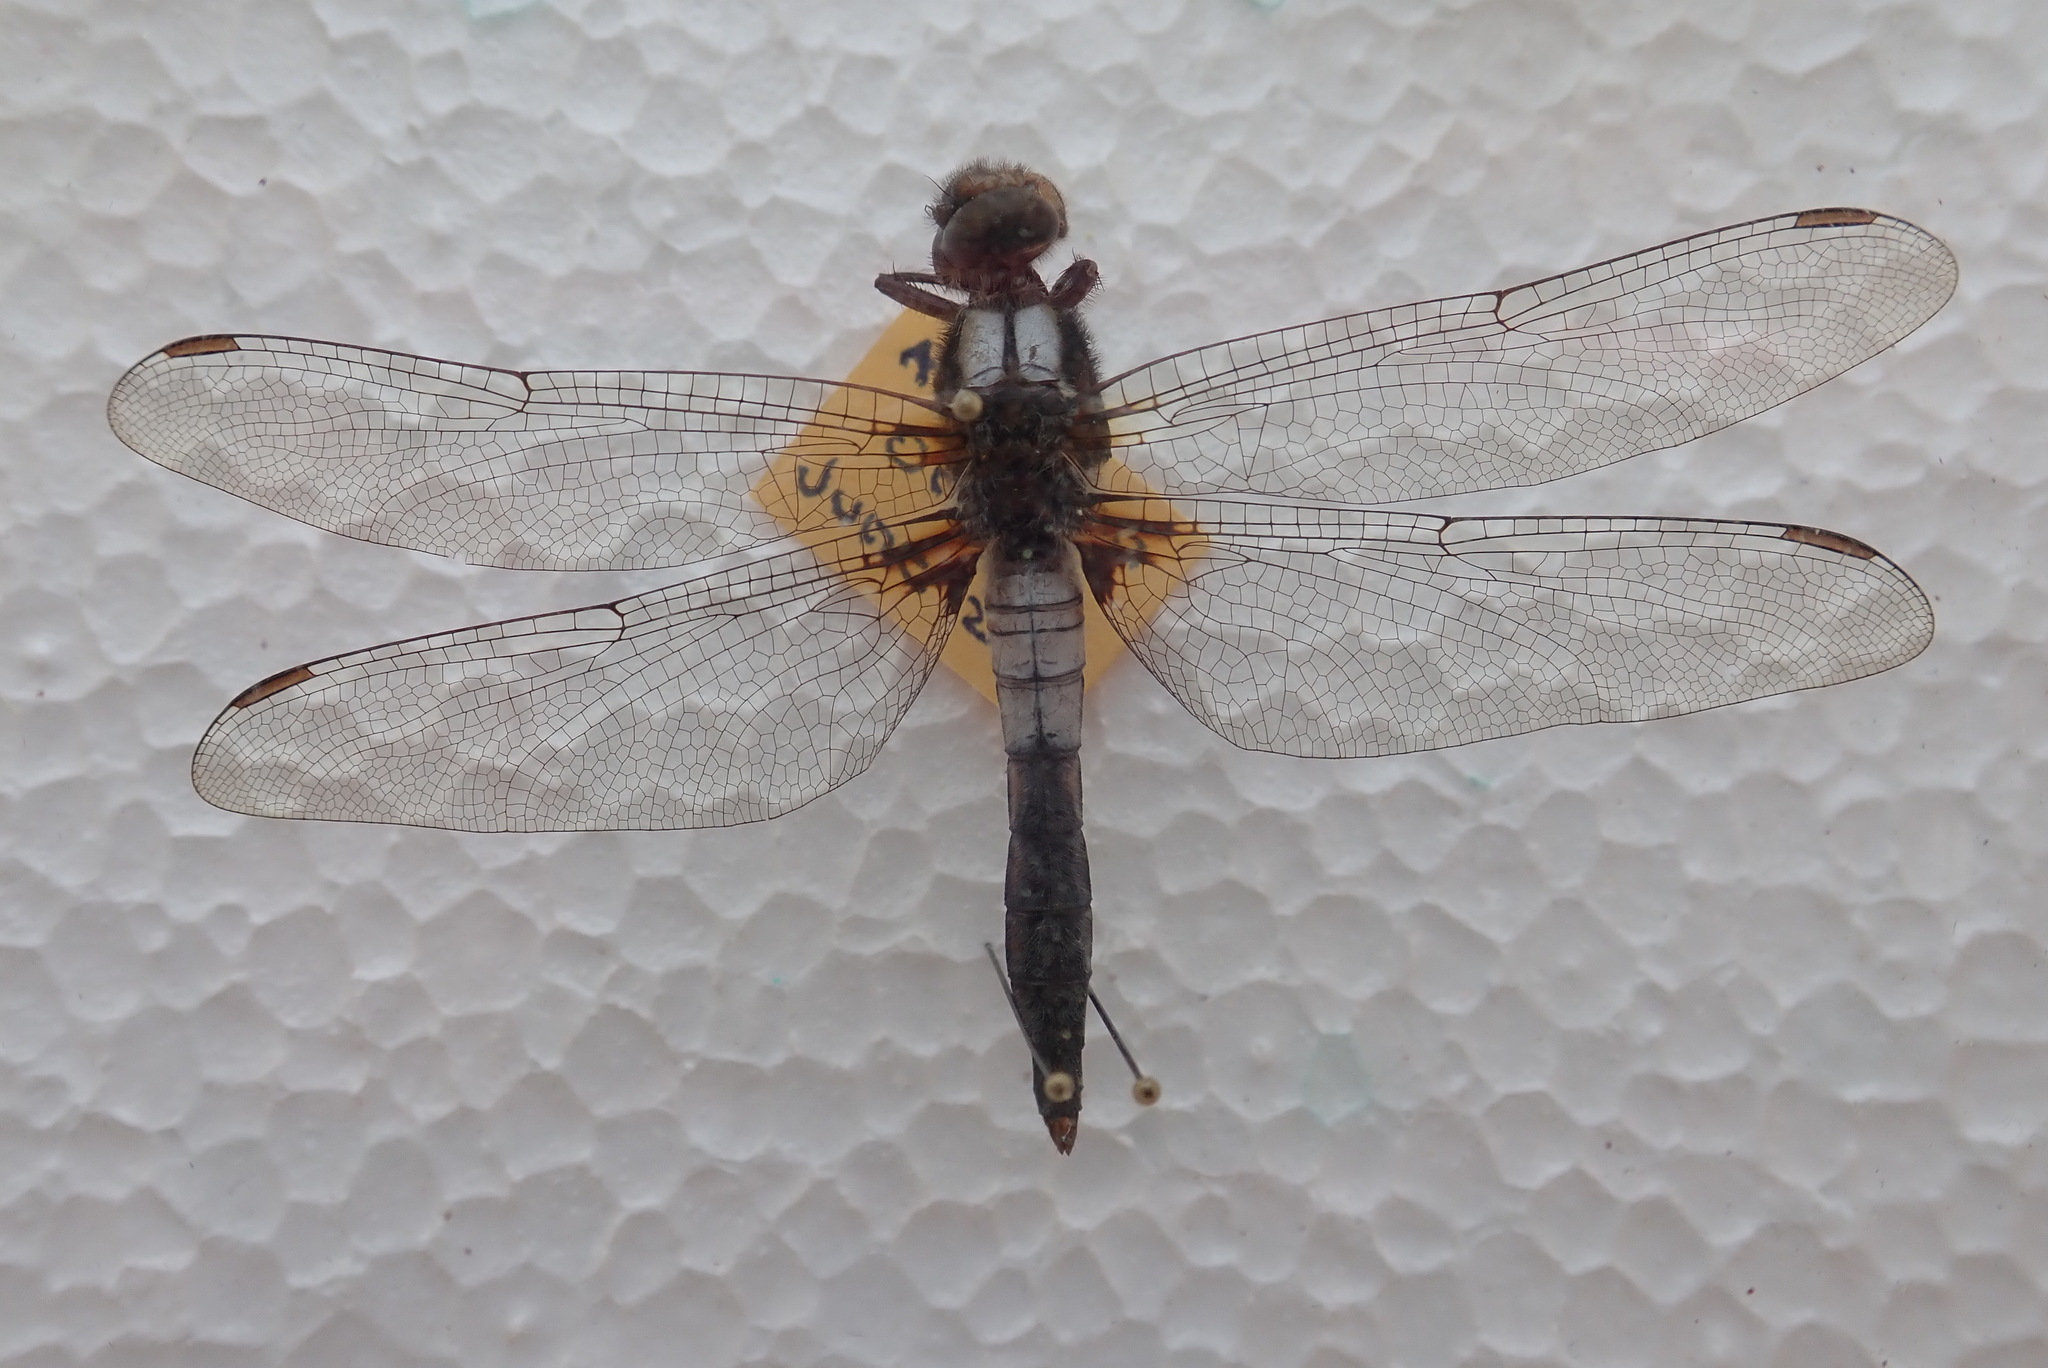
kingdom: Animalia
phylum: Arthropoda
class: Insecta
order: Odonata
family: Libellulidae
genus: Ladona
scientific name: Ladona julia
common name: Chalk-fronted corporal
